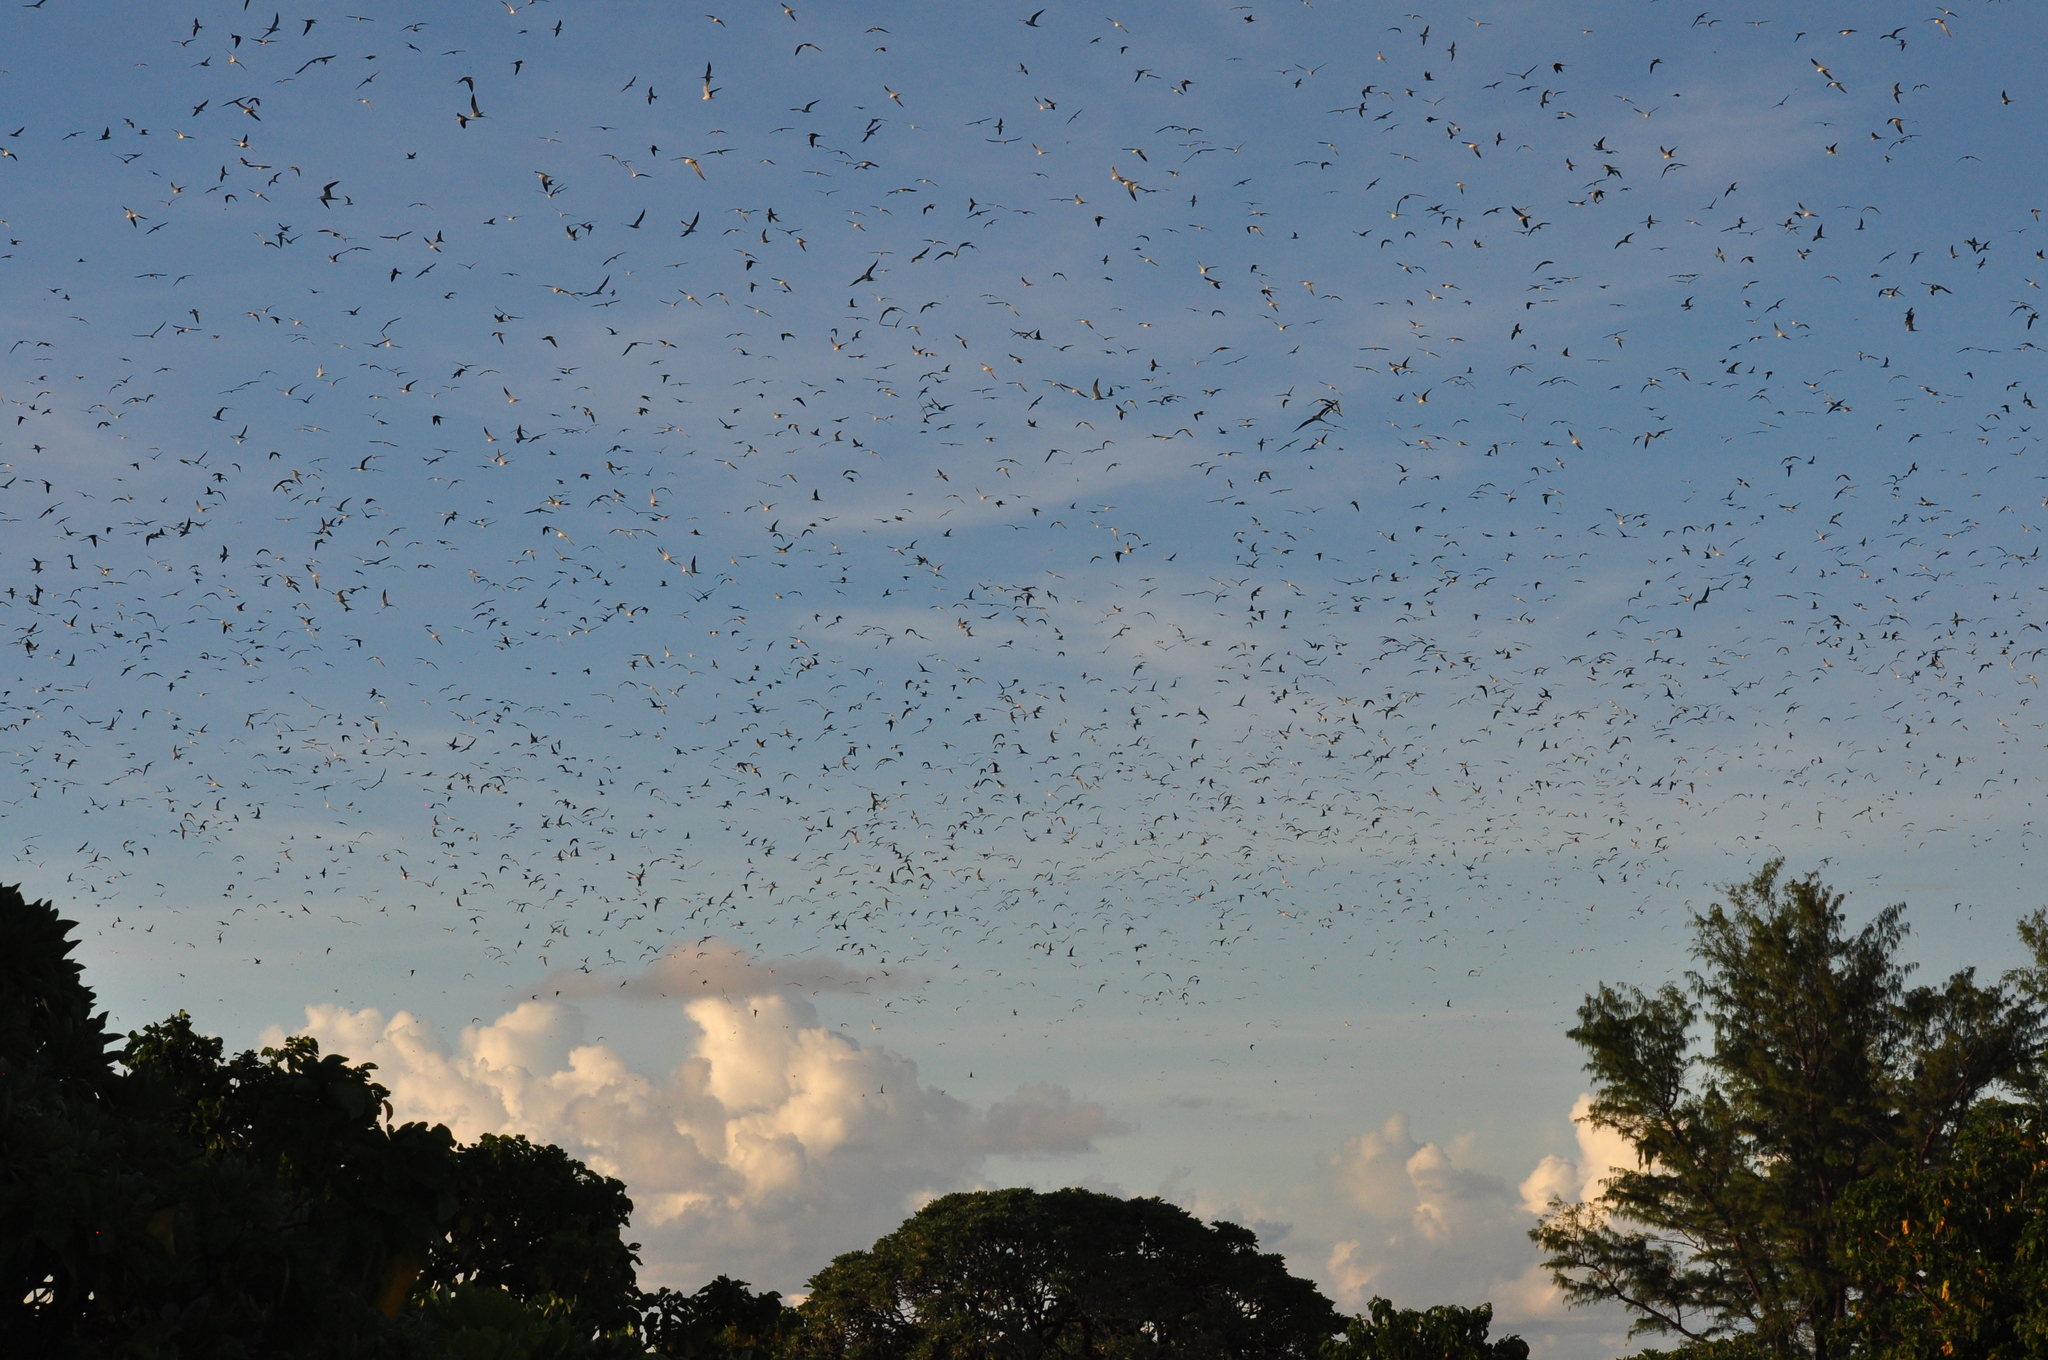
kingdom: Animalia
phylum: Chordata
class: Aves
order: Charadriiformes
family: Laridae
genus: Onychoprion
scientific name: Onychoprion fuscatus
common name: Sooty tern
